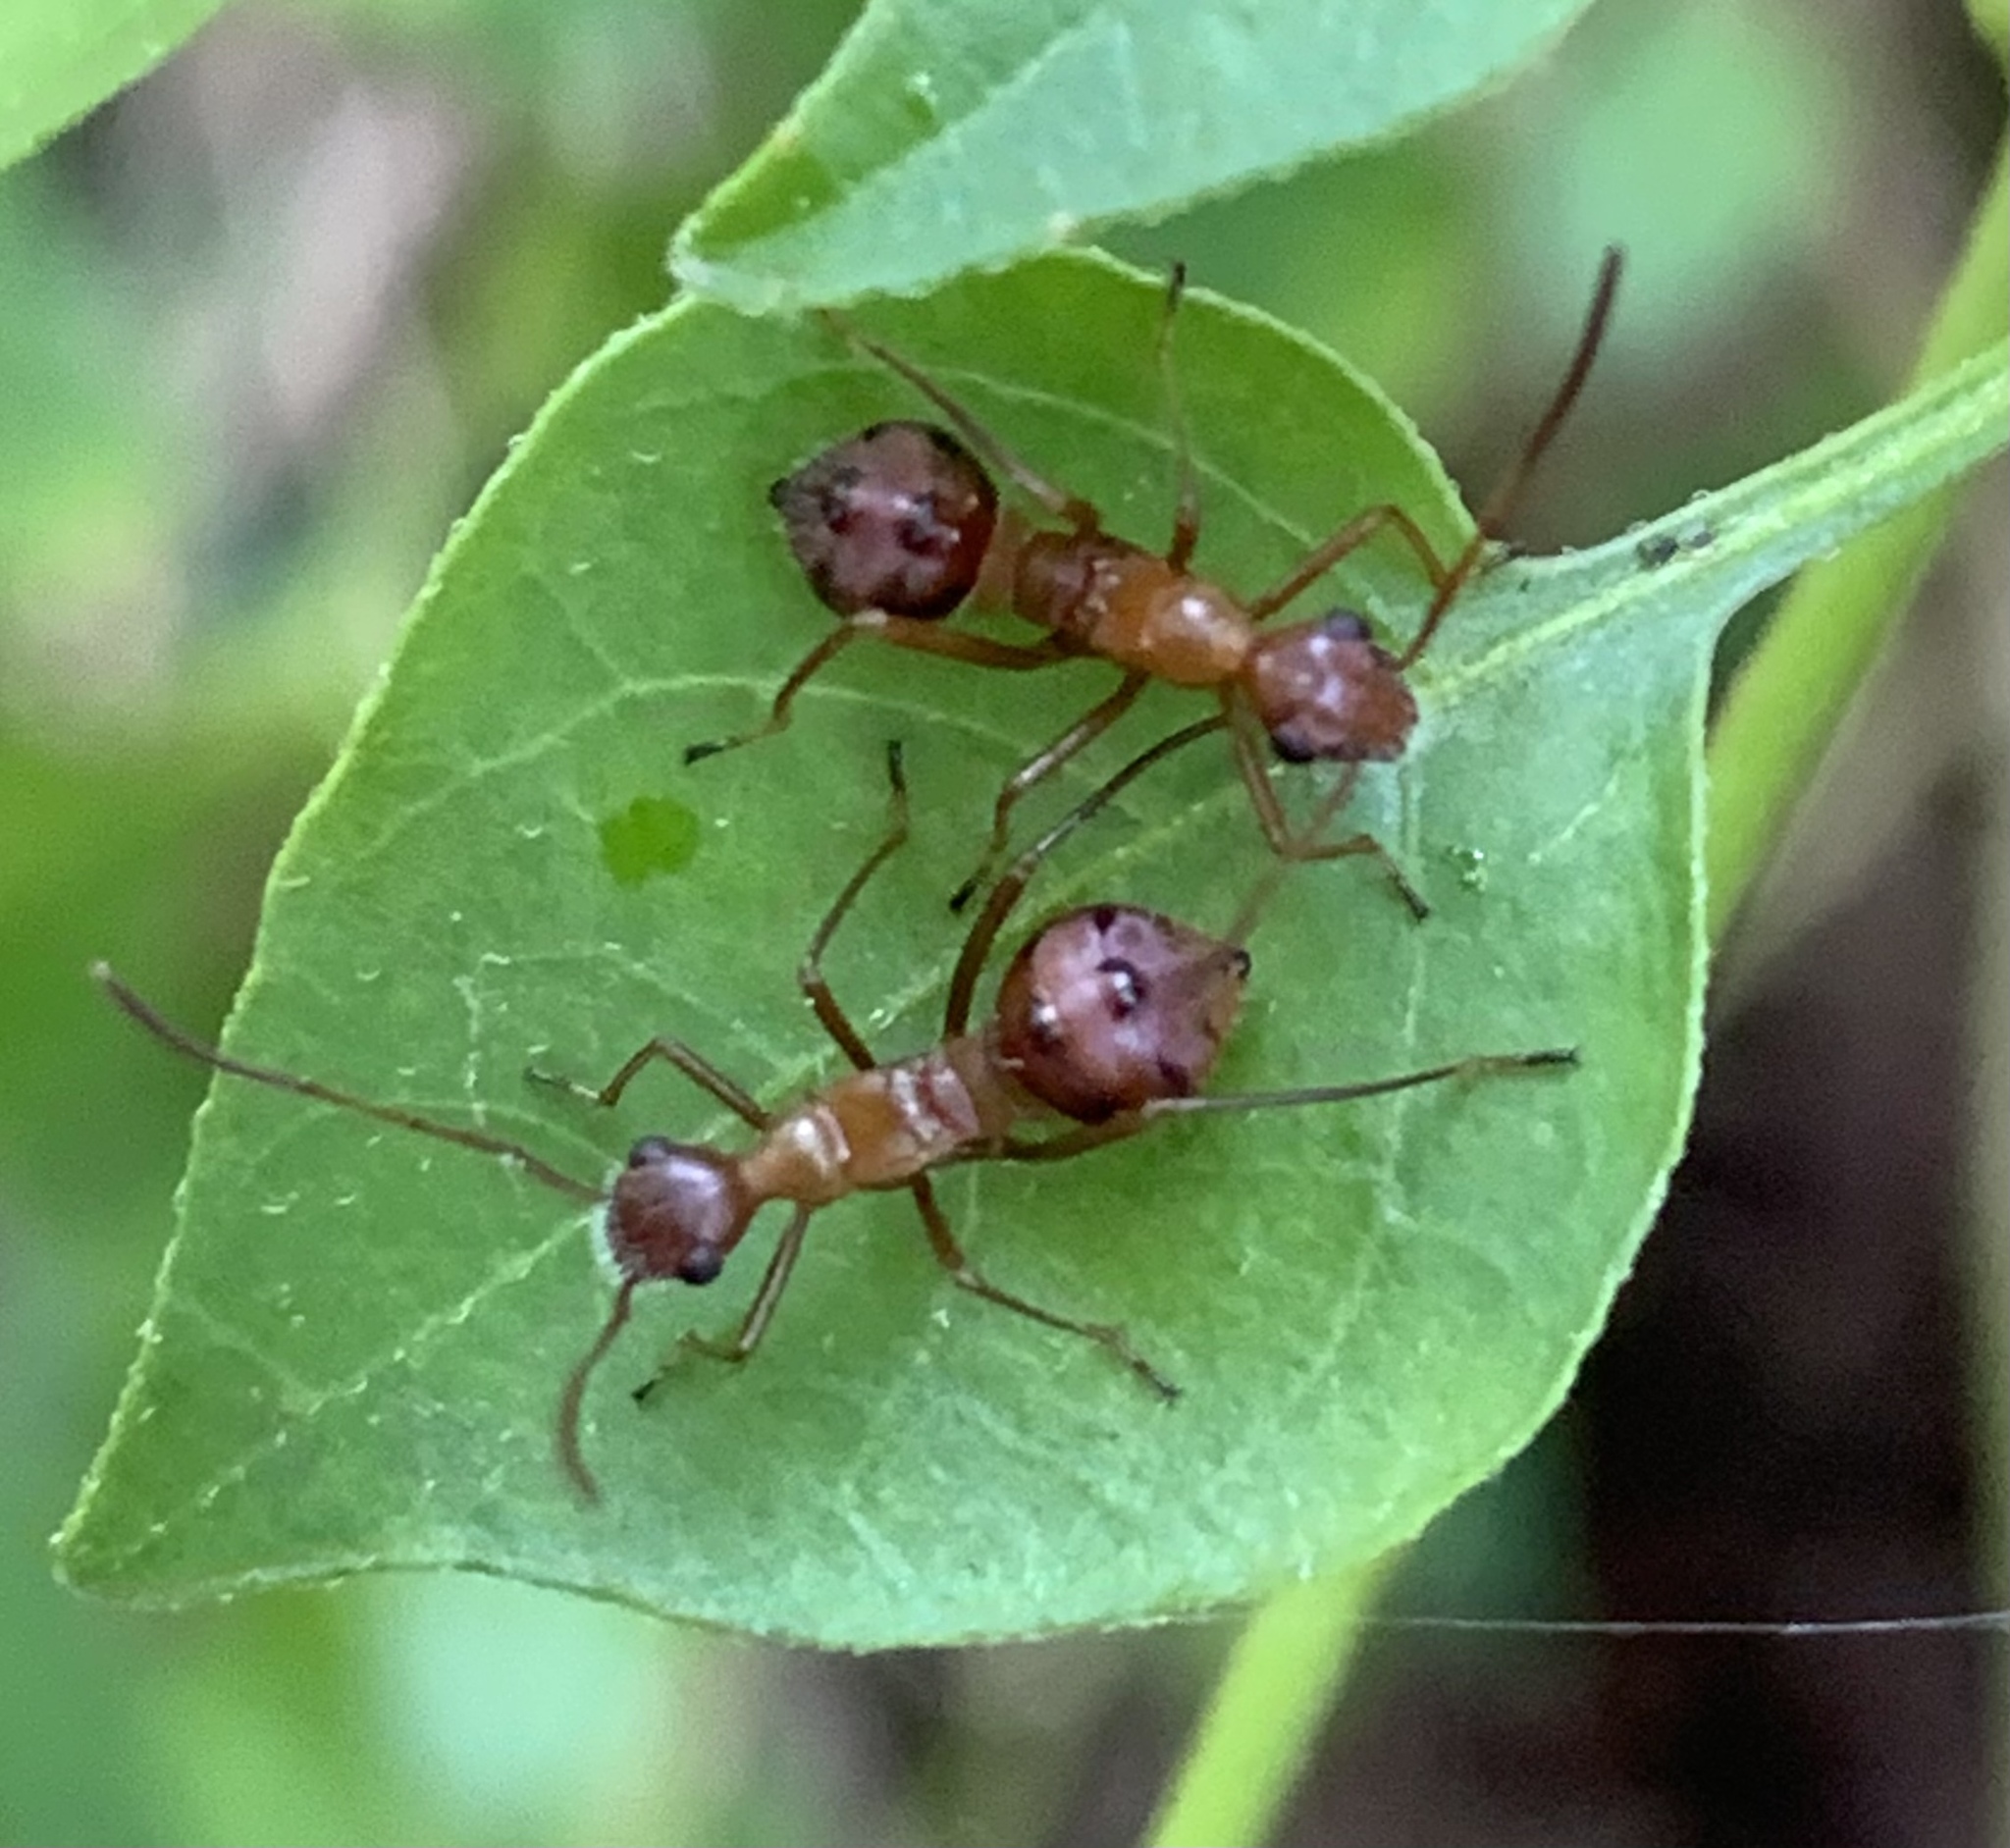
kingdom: Animalia
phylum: Arthropoda
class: Insecta
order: Hemiptera
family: Alydidae
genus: Hyalymenus
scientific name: Hyalymenus tarsatus
